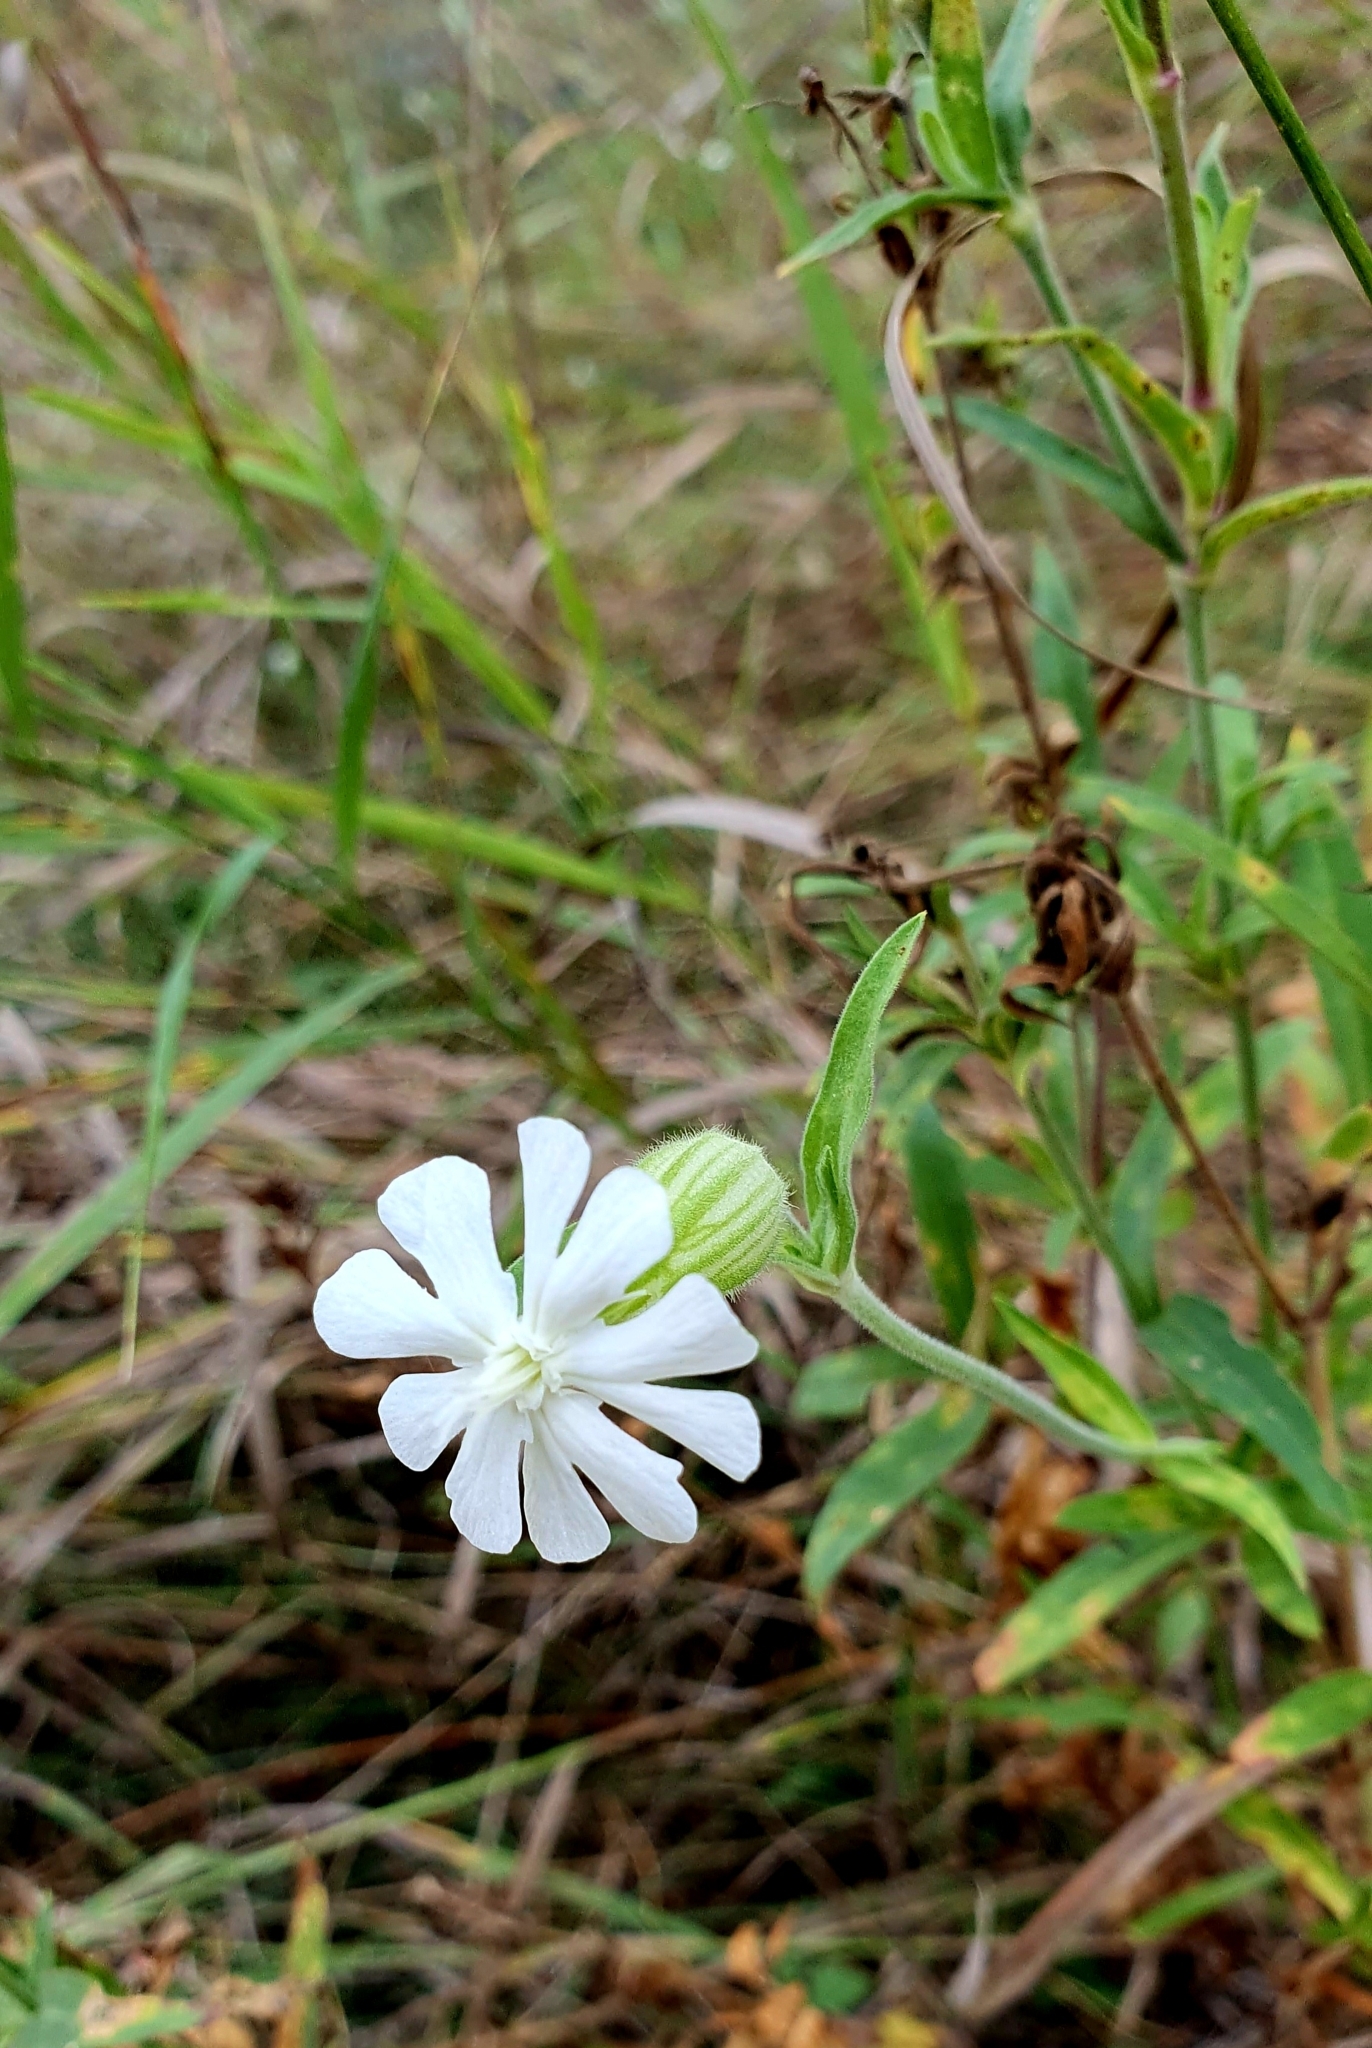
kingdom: Plantae
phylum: Tracheophyta
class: Magnoliopsida
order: Caryophyllales
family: Caryophyllaceae
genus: Silene
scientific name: Silene latifolia
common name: White campion
